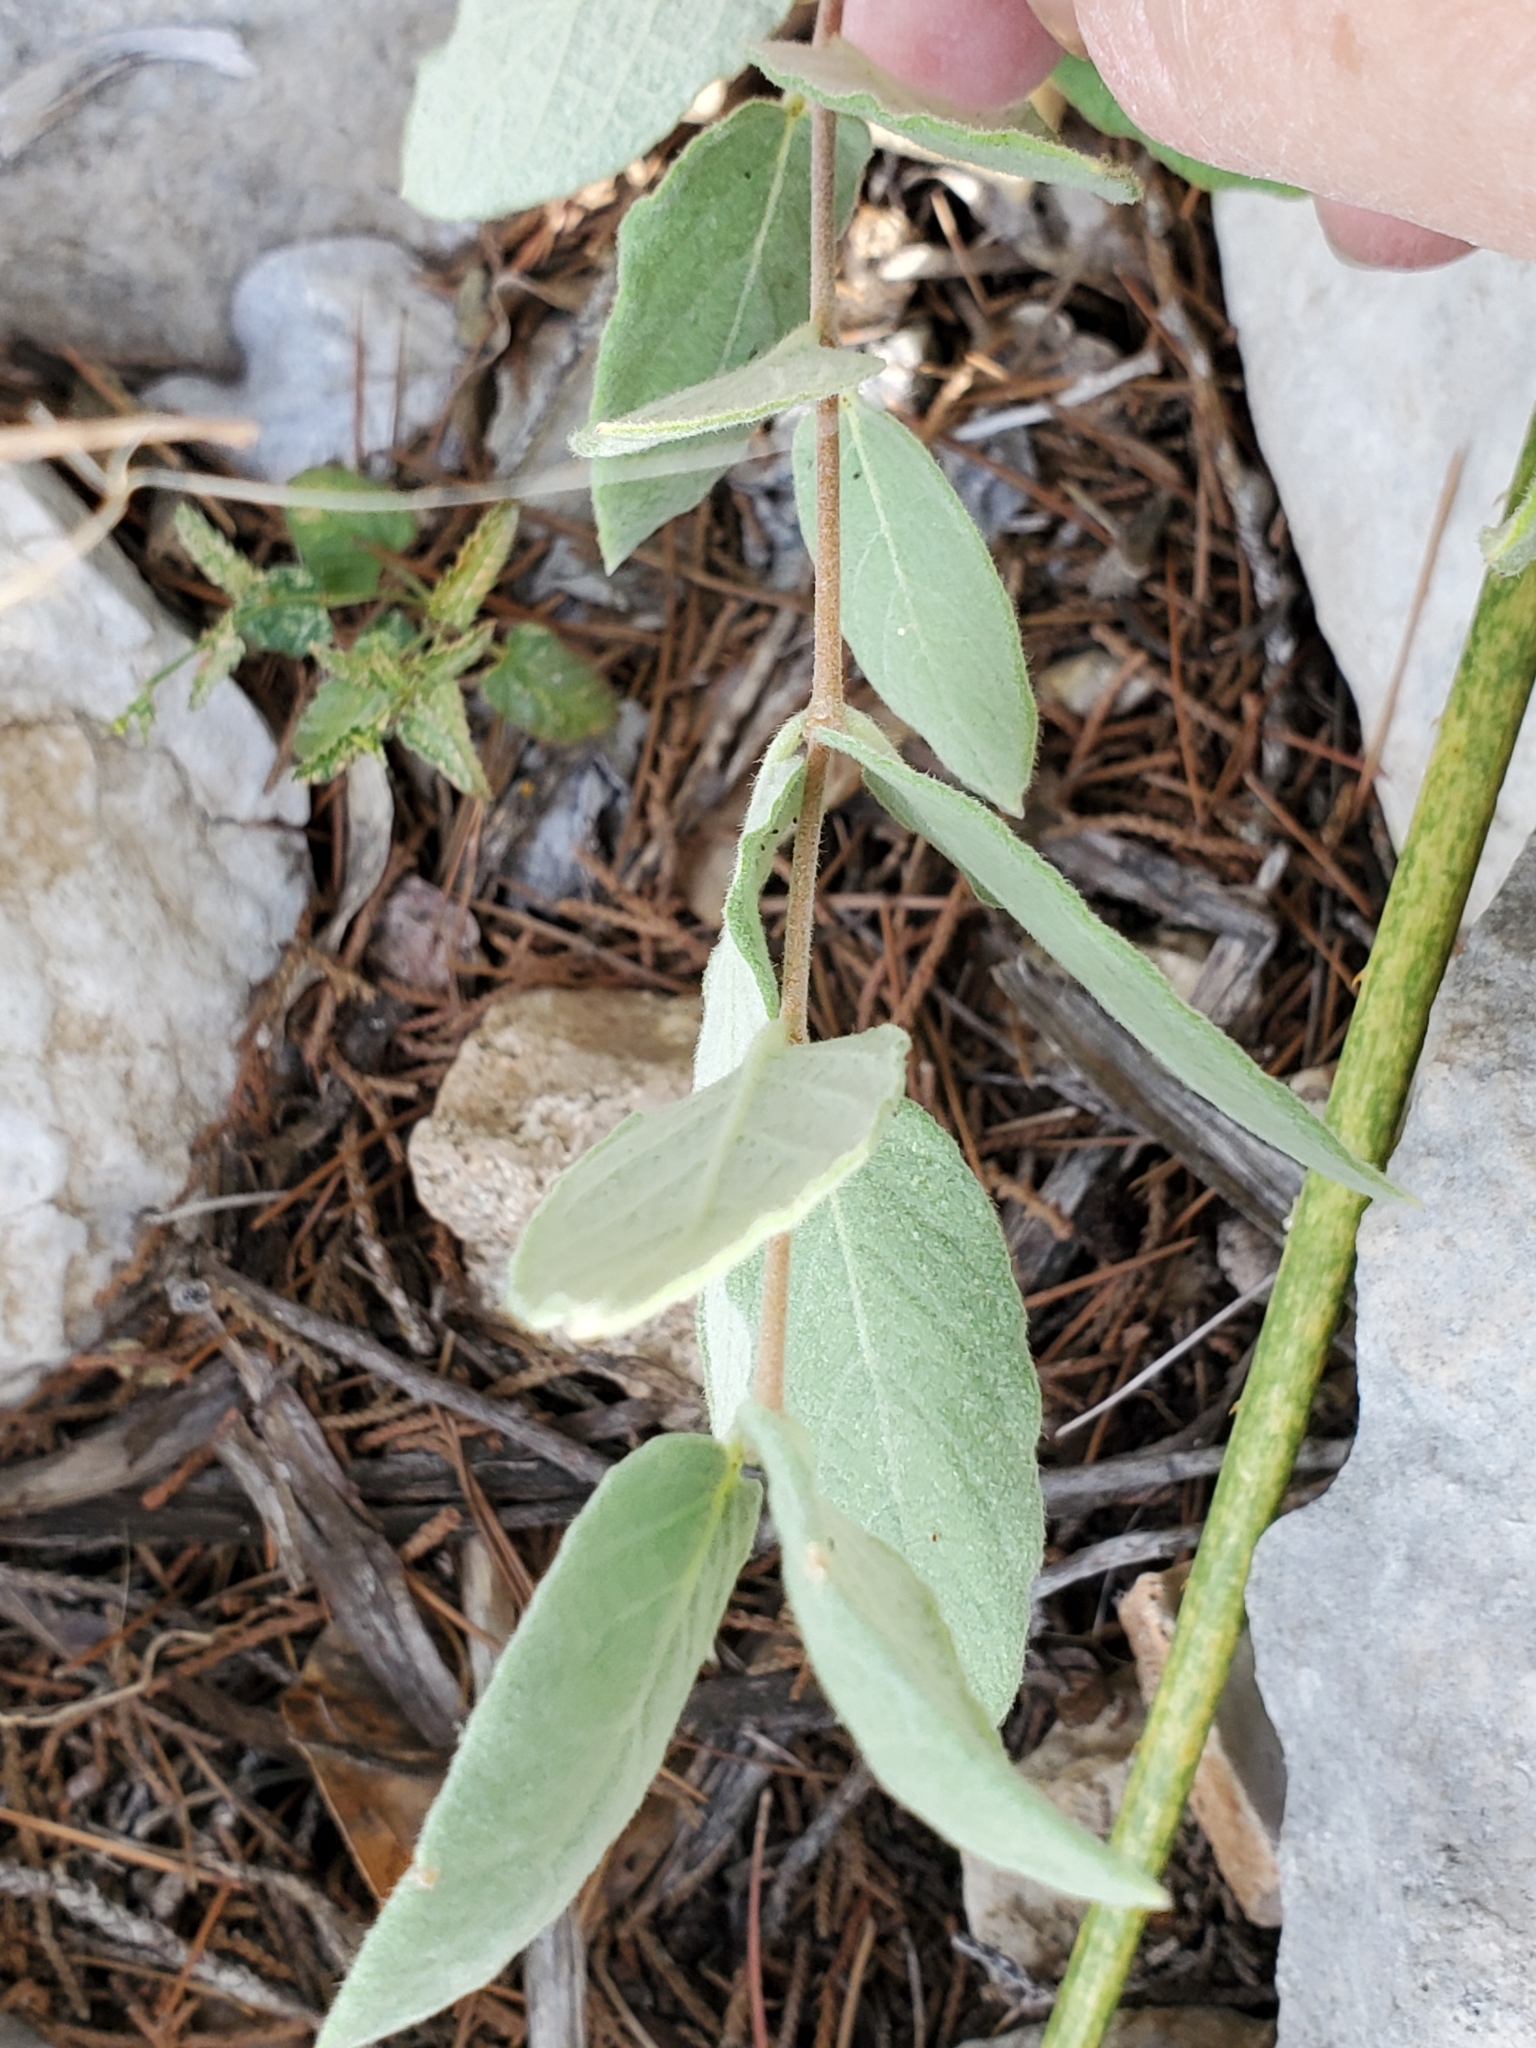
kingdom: Plantae
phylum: Tracheophyta
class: Magnoliopsida
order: Gentianales
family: Apocynaceae
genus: Mandevilla
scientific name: Mandevilla macrosiphon
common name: Plateau rocktrumpet
